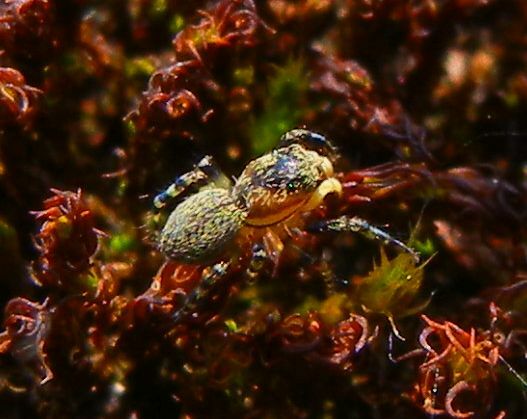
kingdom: Animalia
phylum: Arthropoda
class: Arachnida
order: Araneae
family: Salticidae
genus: Talavera
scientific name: Talavera aequipes
